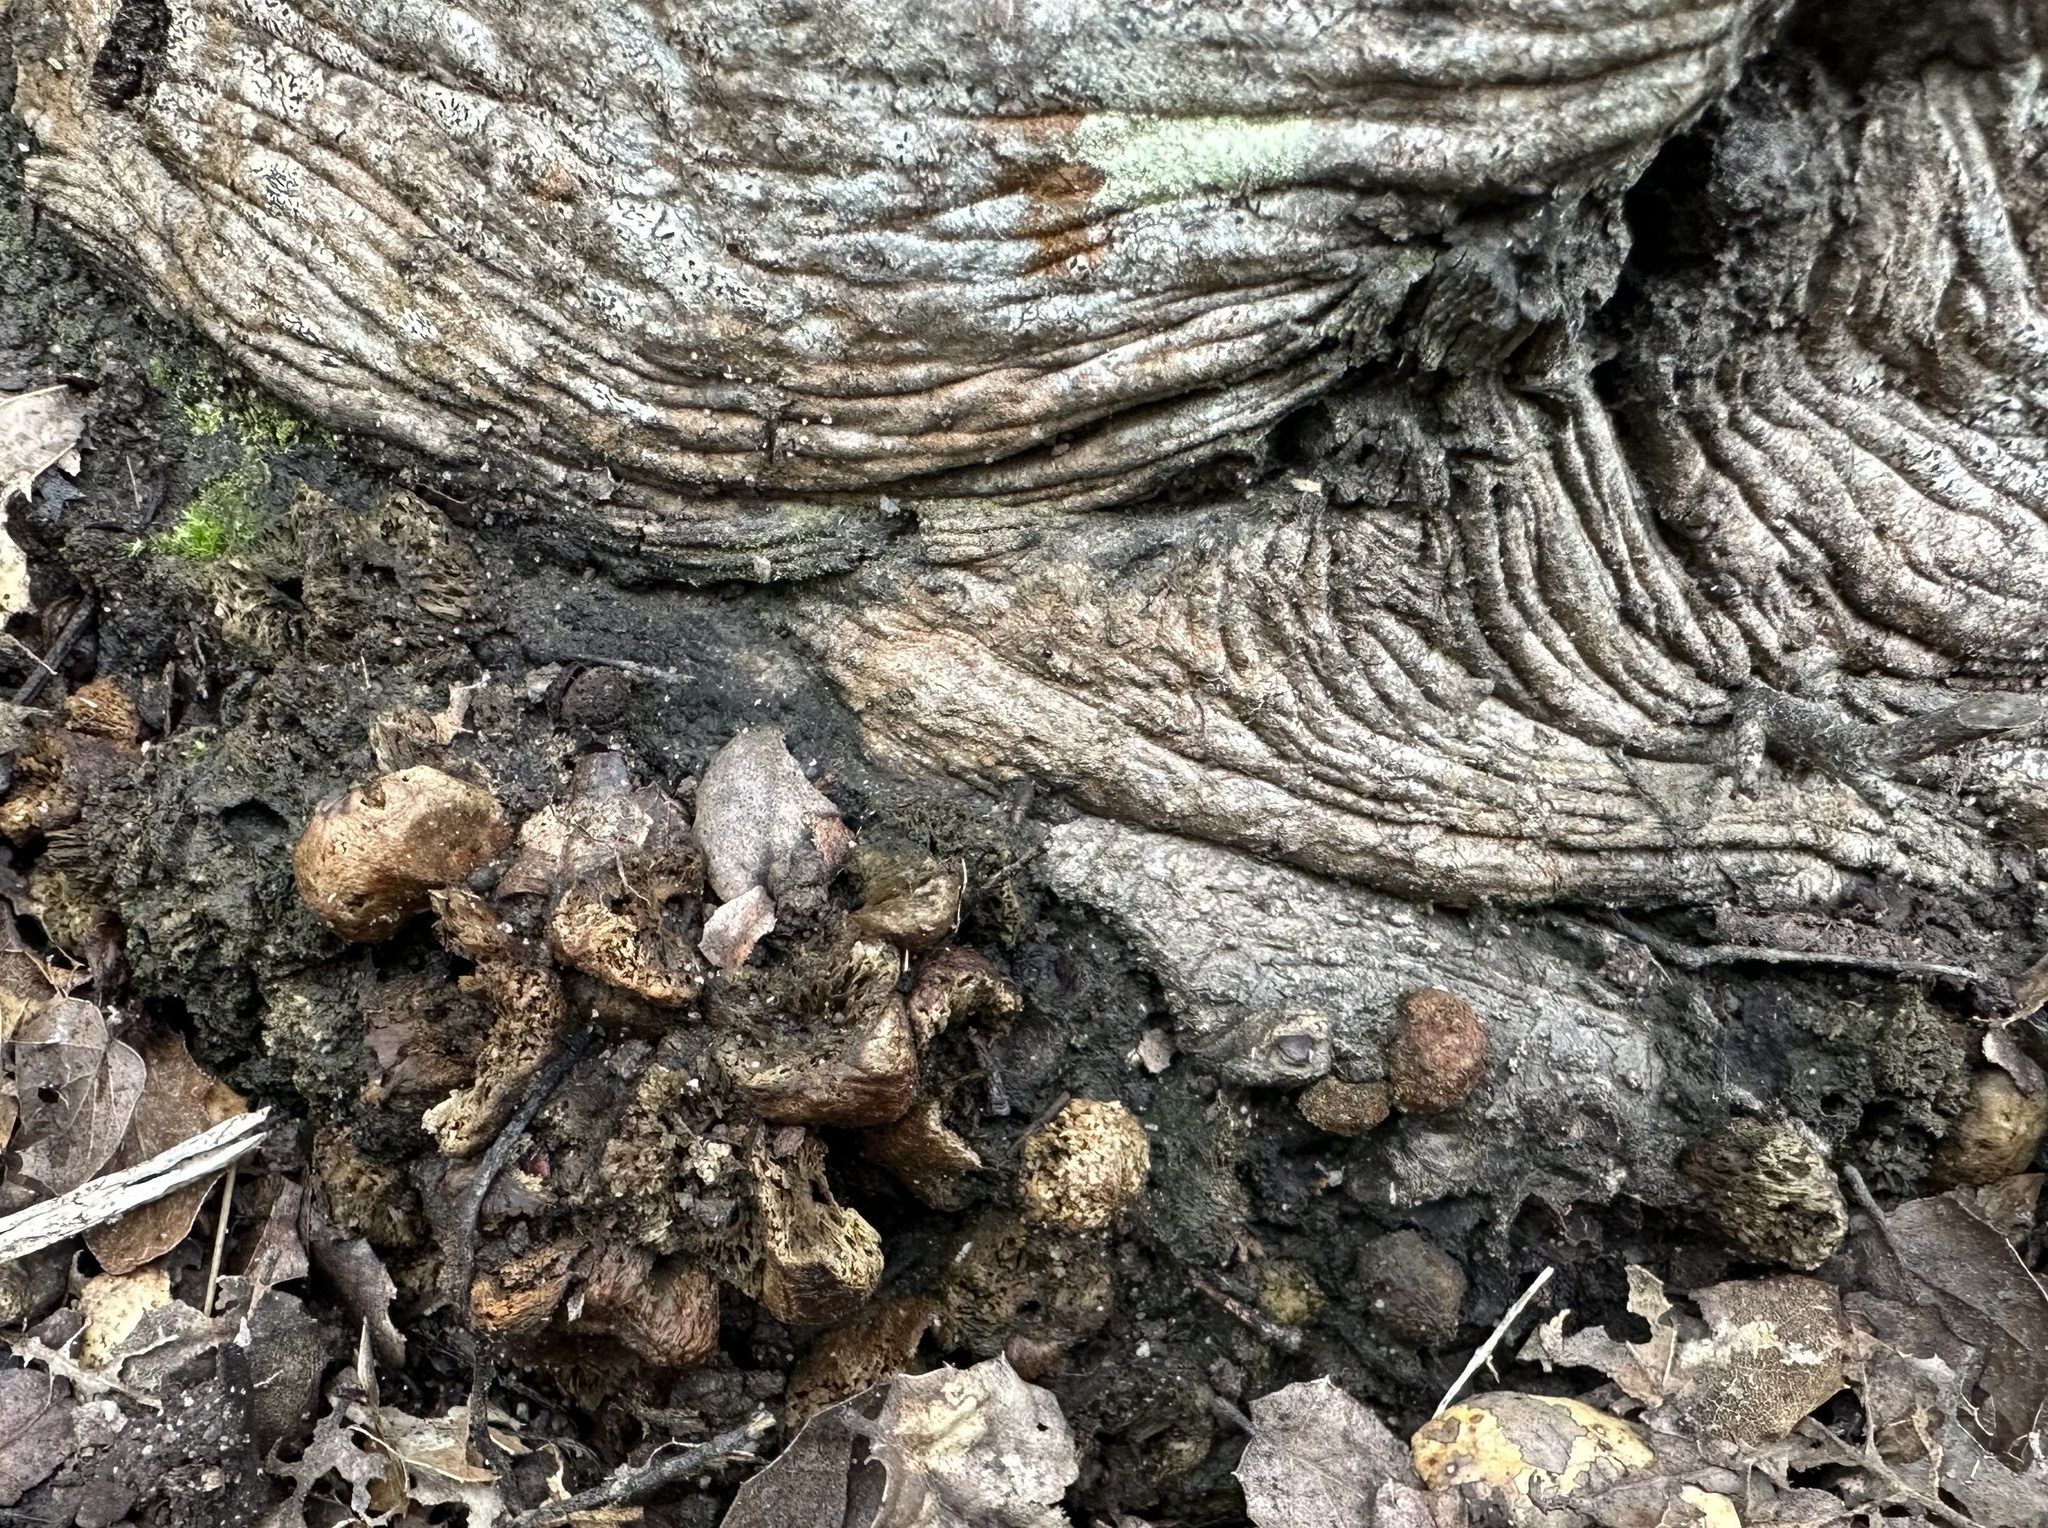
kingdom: Animalia
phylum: Arthropoda
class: Insecta
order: Hymenoptera
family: Cynipidae
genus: Callirhytis
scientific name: Callirhytis
